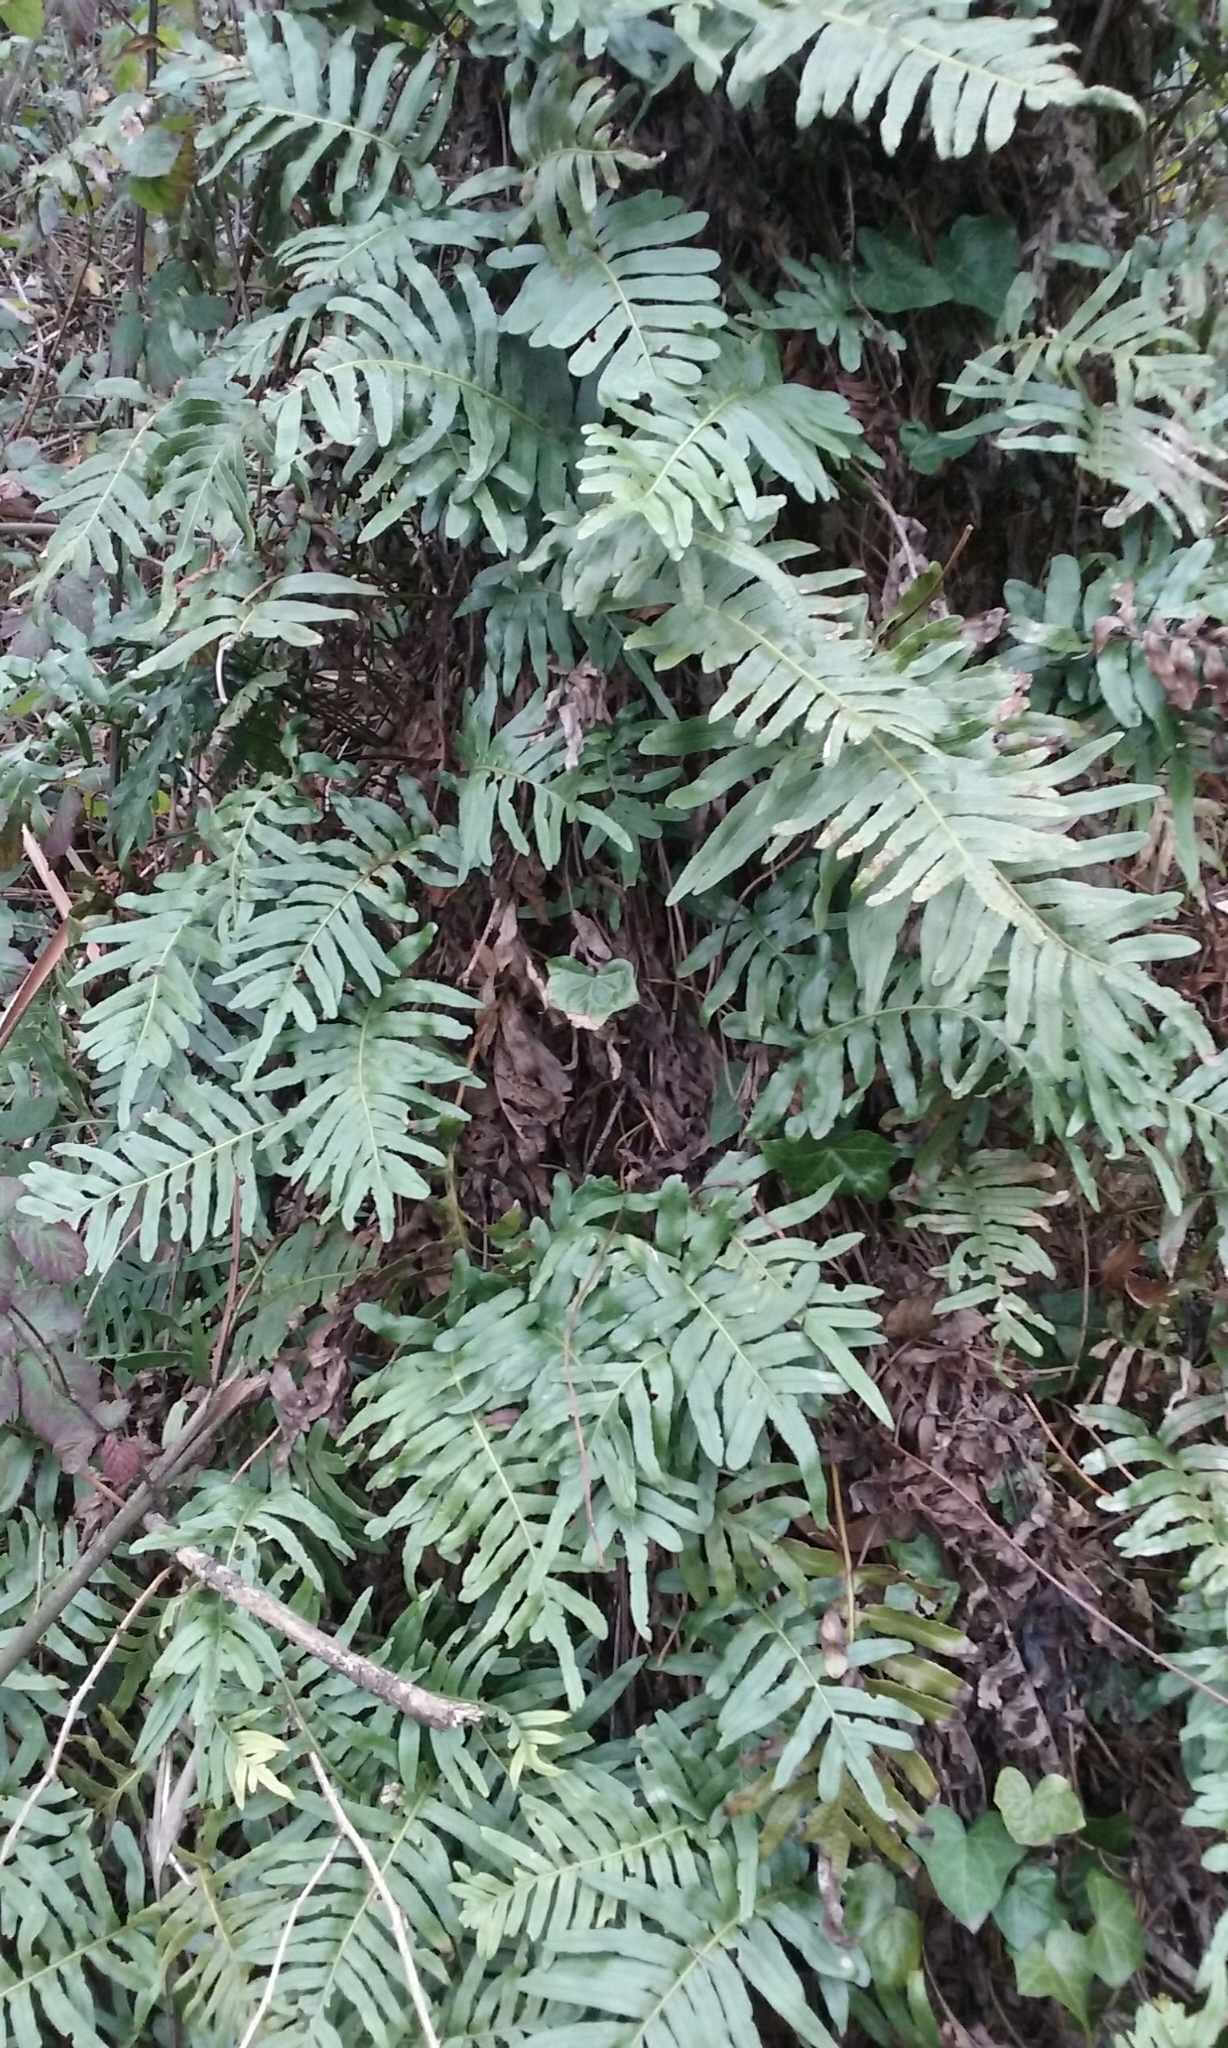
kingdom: Plantae
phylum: Tracheophyta
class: Polypodiopsida
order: Polypodiales
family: Polypodiaceae
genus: Polypodium
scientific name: Polypodium scouleri
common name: Scouler's polypody
